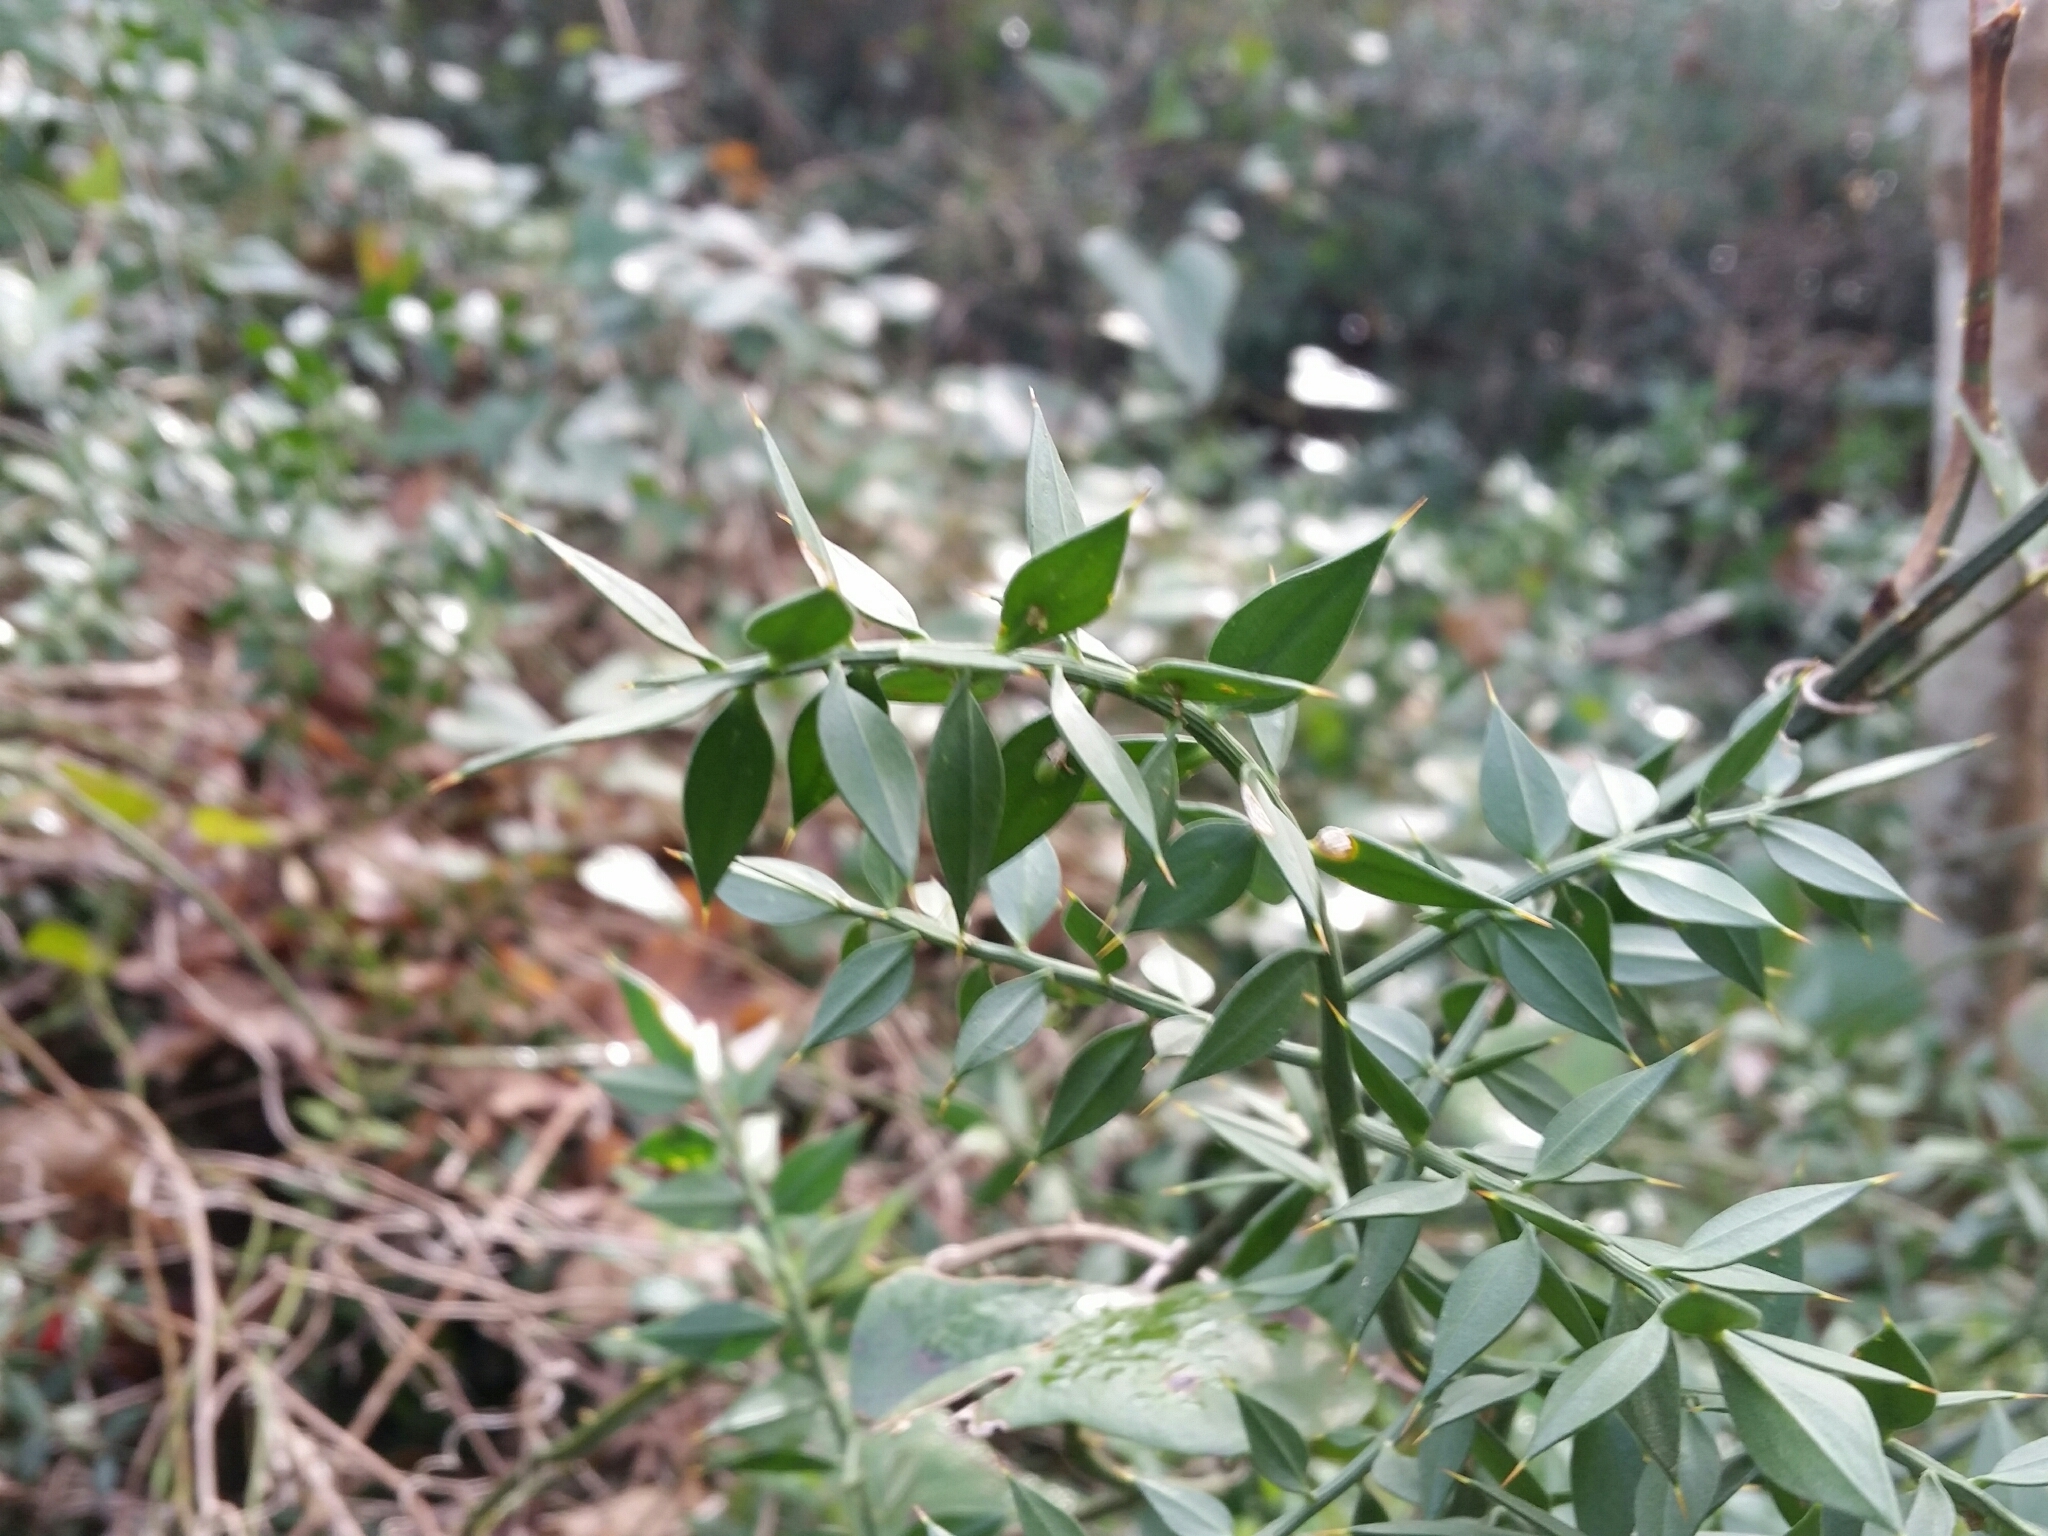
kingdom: Plantae
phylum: Tracheophyta
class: Liliopsida
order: Asparagales
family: Asparagaceae
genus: Ruscus
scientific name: Ruscus aculeatus
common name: Butcher's-broom
